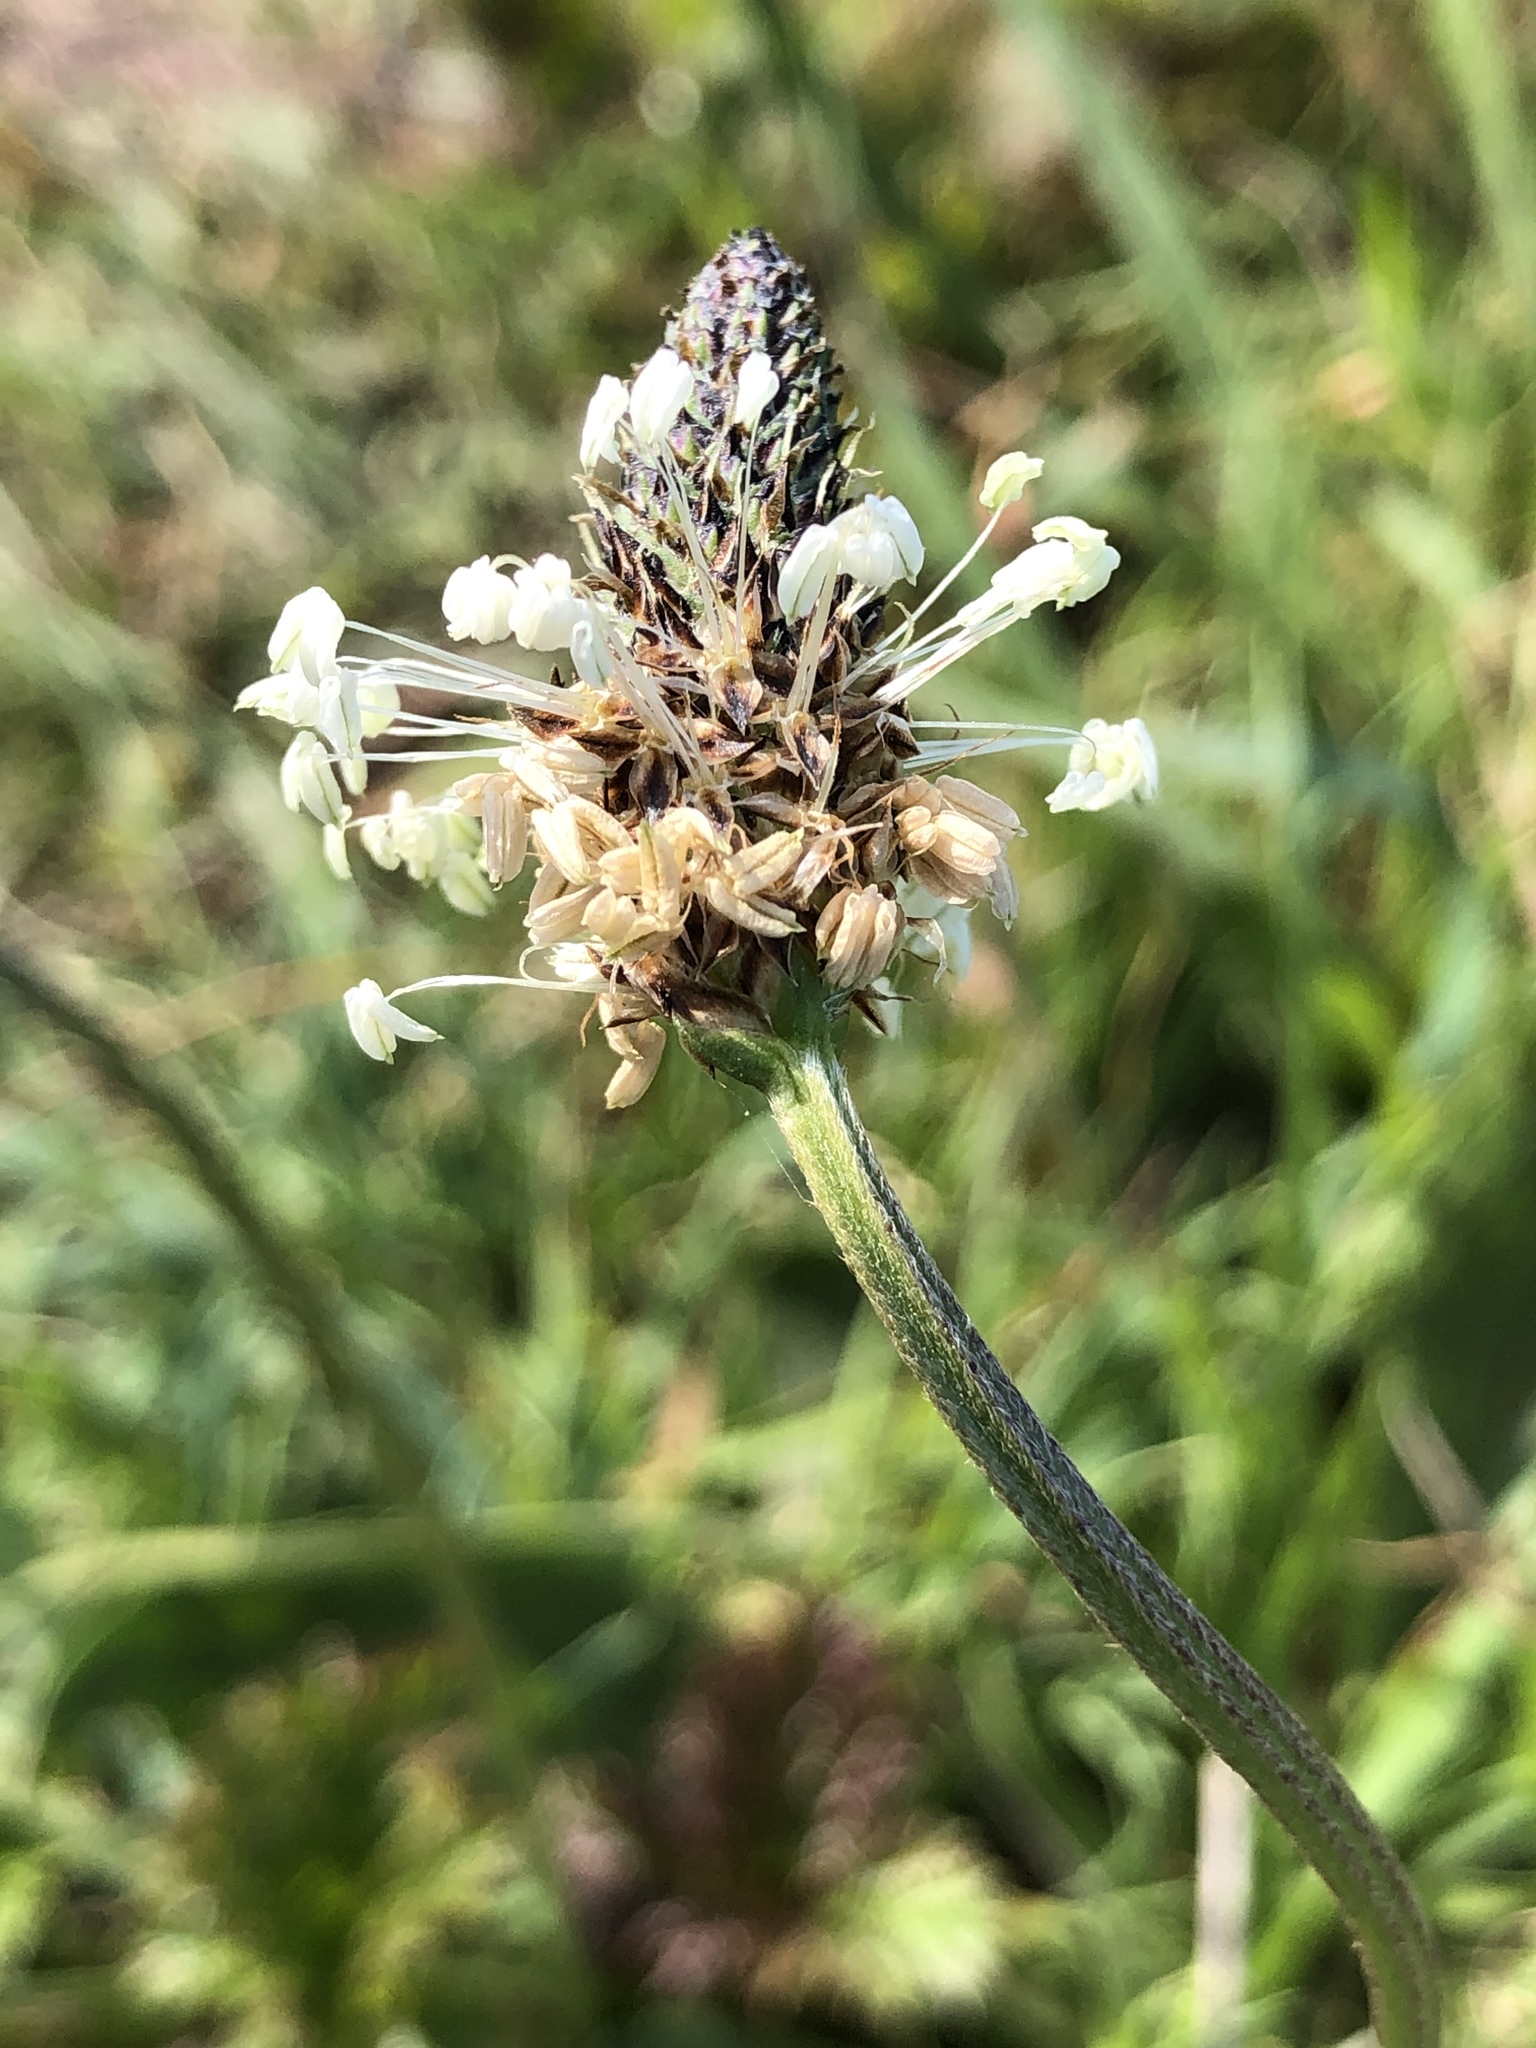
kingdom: Plantae
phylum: Tracheophyta
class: Magnoliopsida
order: Lamiales
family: Plantaginaceae
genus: Plantago
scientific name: Plantago lanceolata
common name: Ribwort plantain
